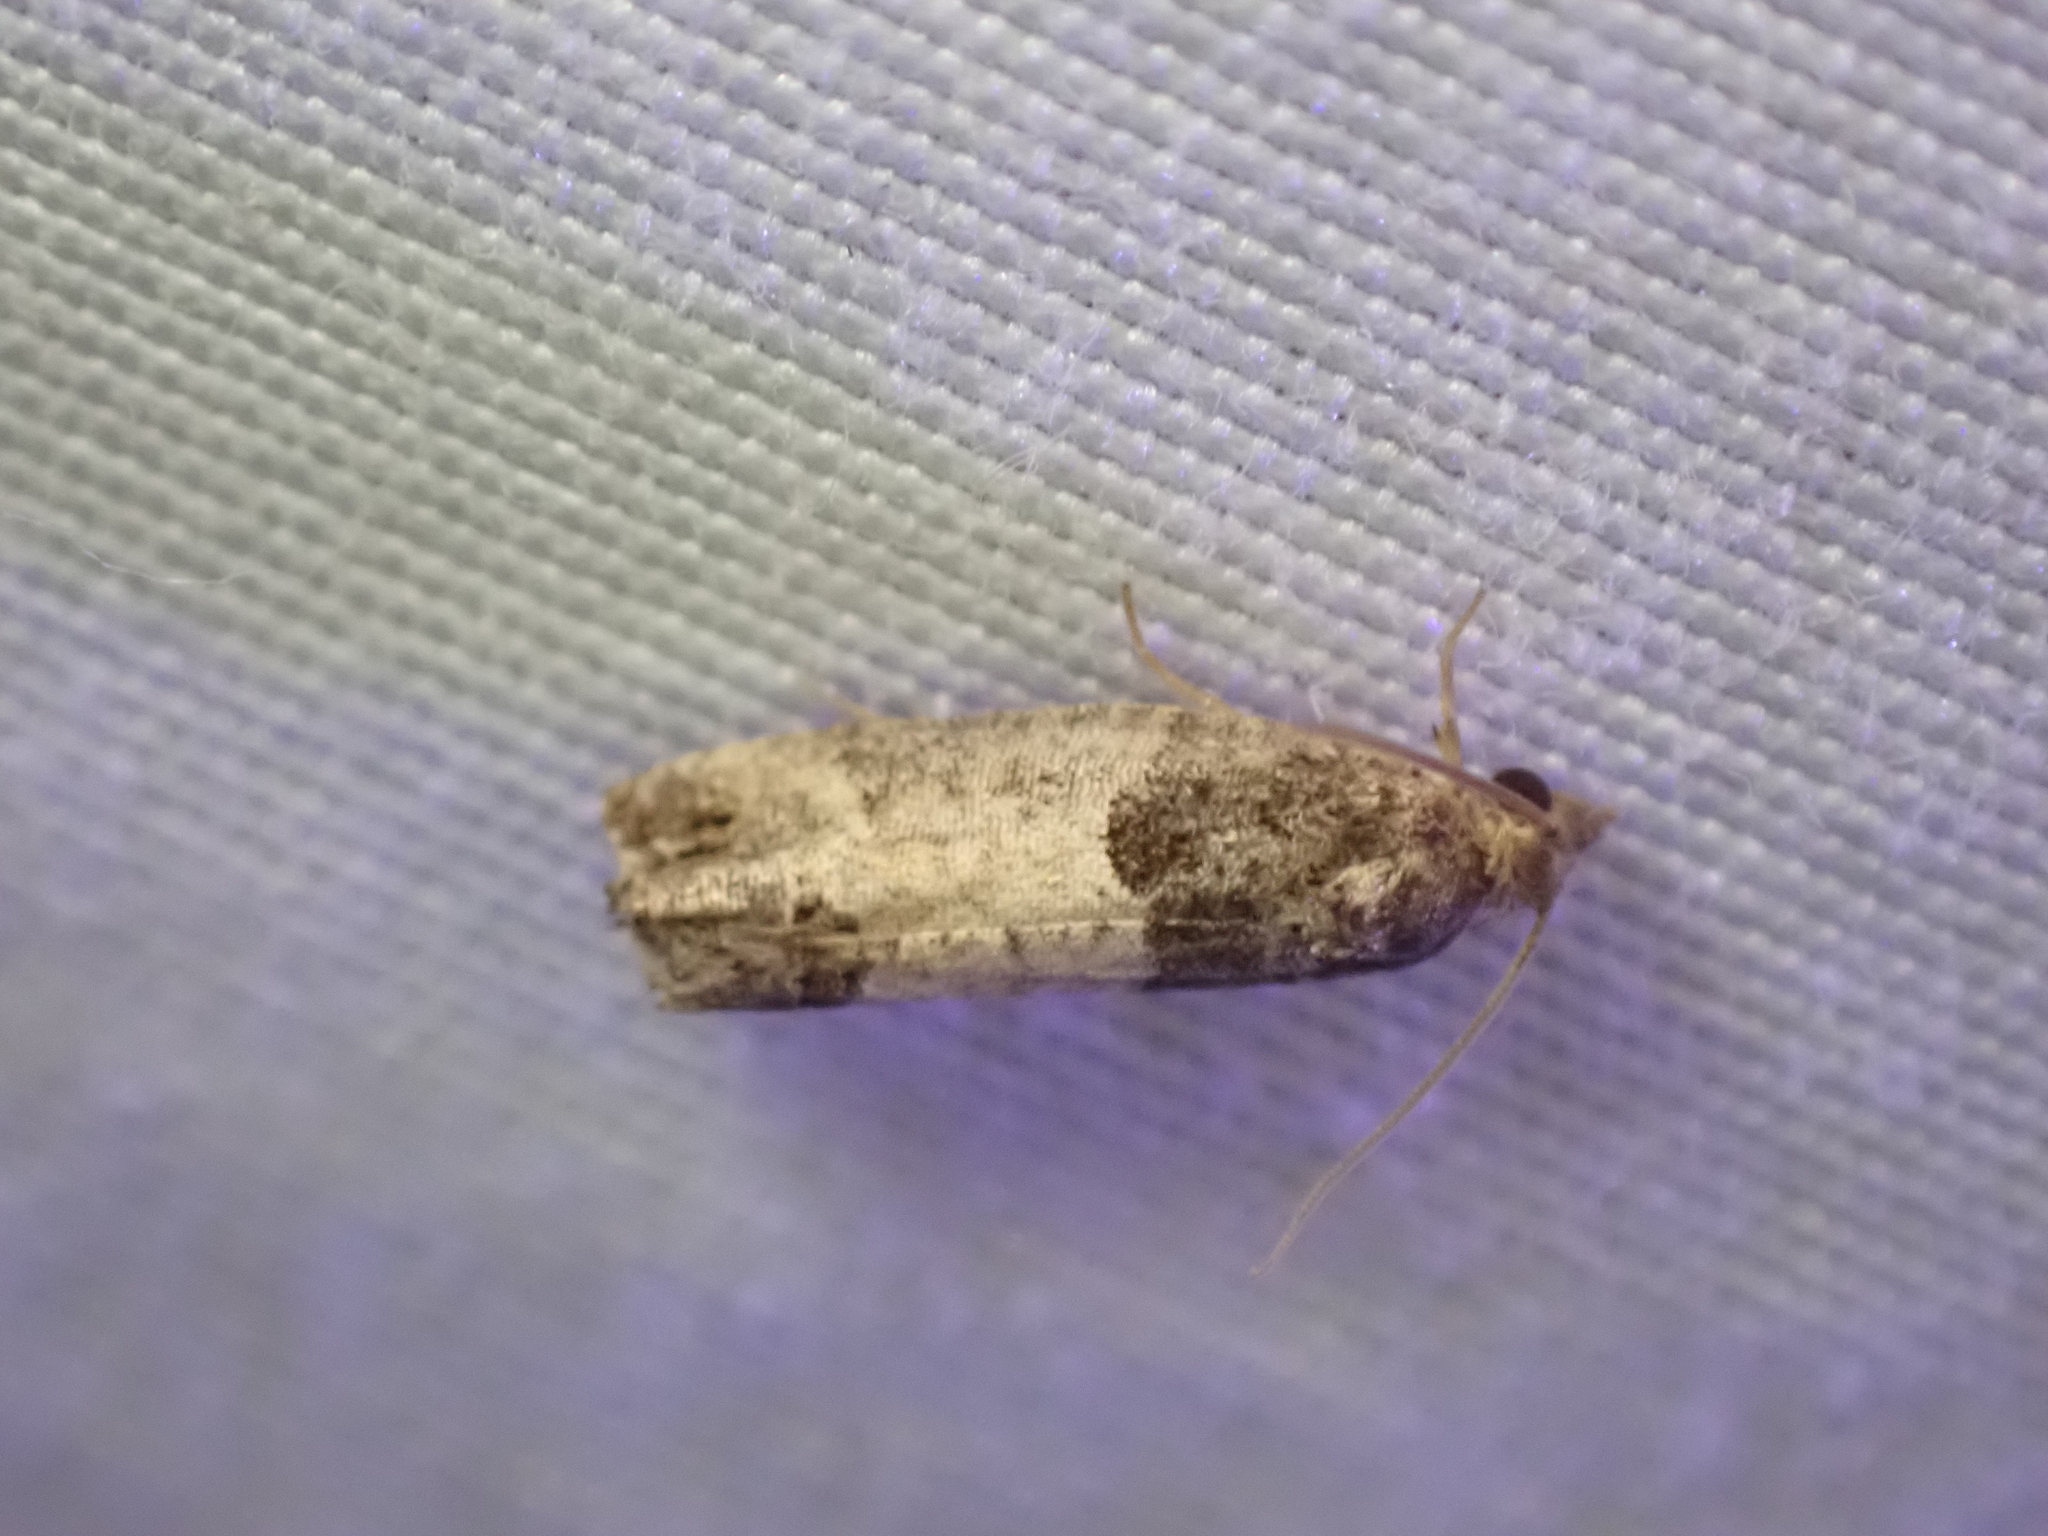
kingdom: Animalia
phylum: Arthropoda
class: Insecta
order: Lepidoptera
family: Tortricidae
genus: Spilonota
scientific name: Spilonota ocellana
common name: Bud moth
